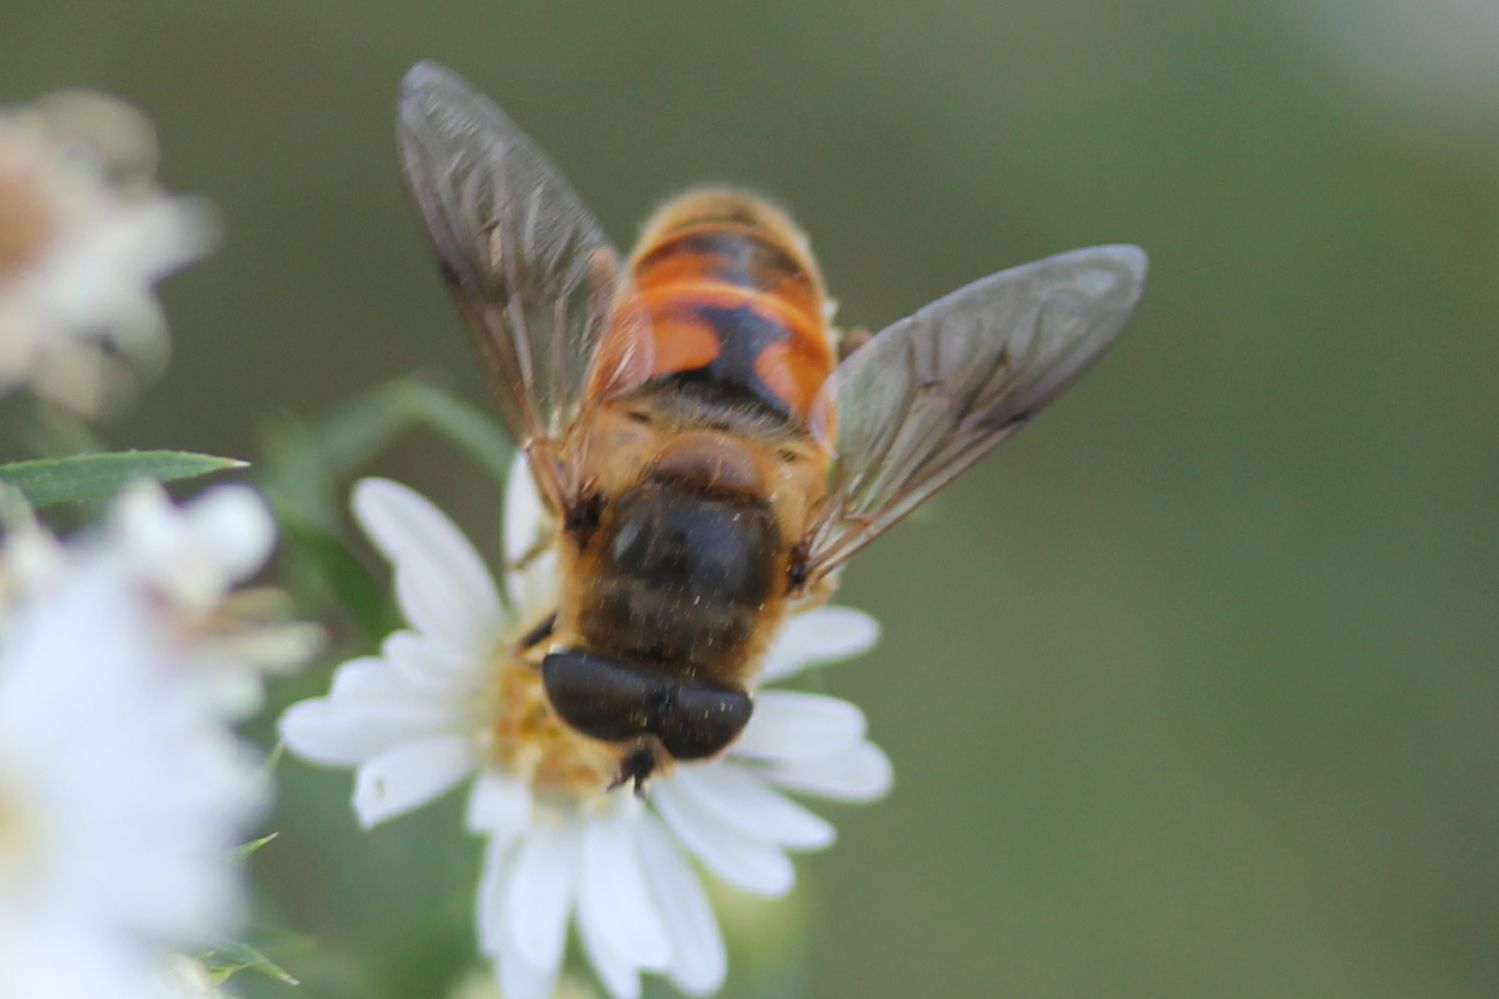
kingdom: Animalia
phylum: Arthropoda
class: Insecta
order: Diptera
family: Syrphidae
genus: Eristalis
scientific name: Eristalis tenax
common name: Drone fly
